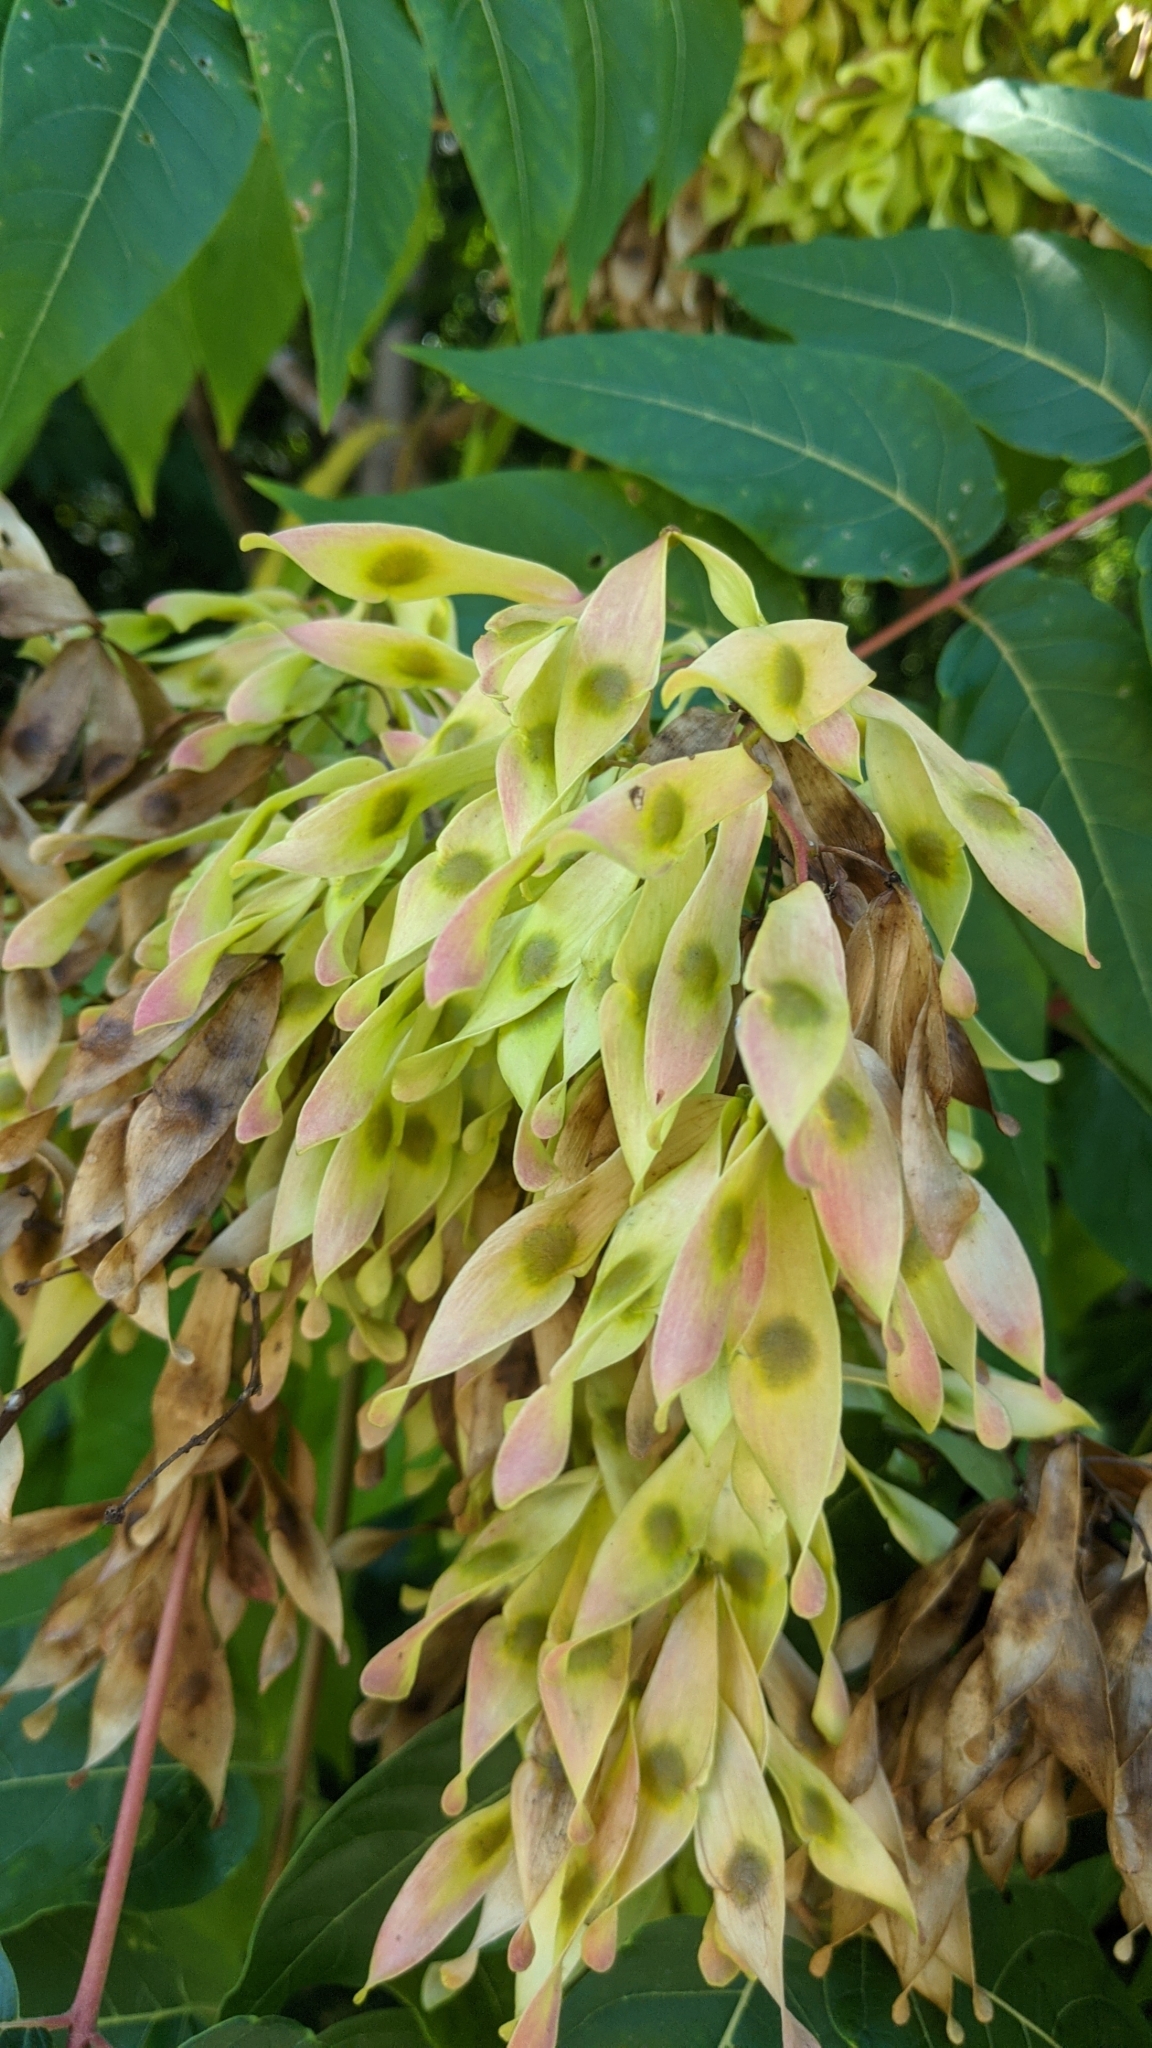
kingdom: Plantae
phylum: Tracheophyta
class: Magnoliopsida
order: Sapindales
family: Simaroubaceae
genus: Ailanthus
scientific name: Ailanthus altissima
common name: Tree-of-heaven
